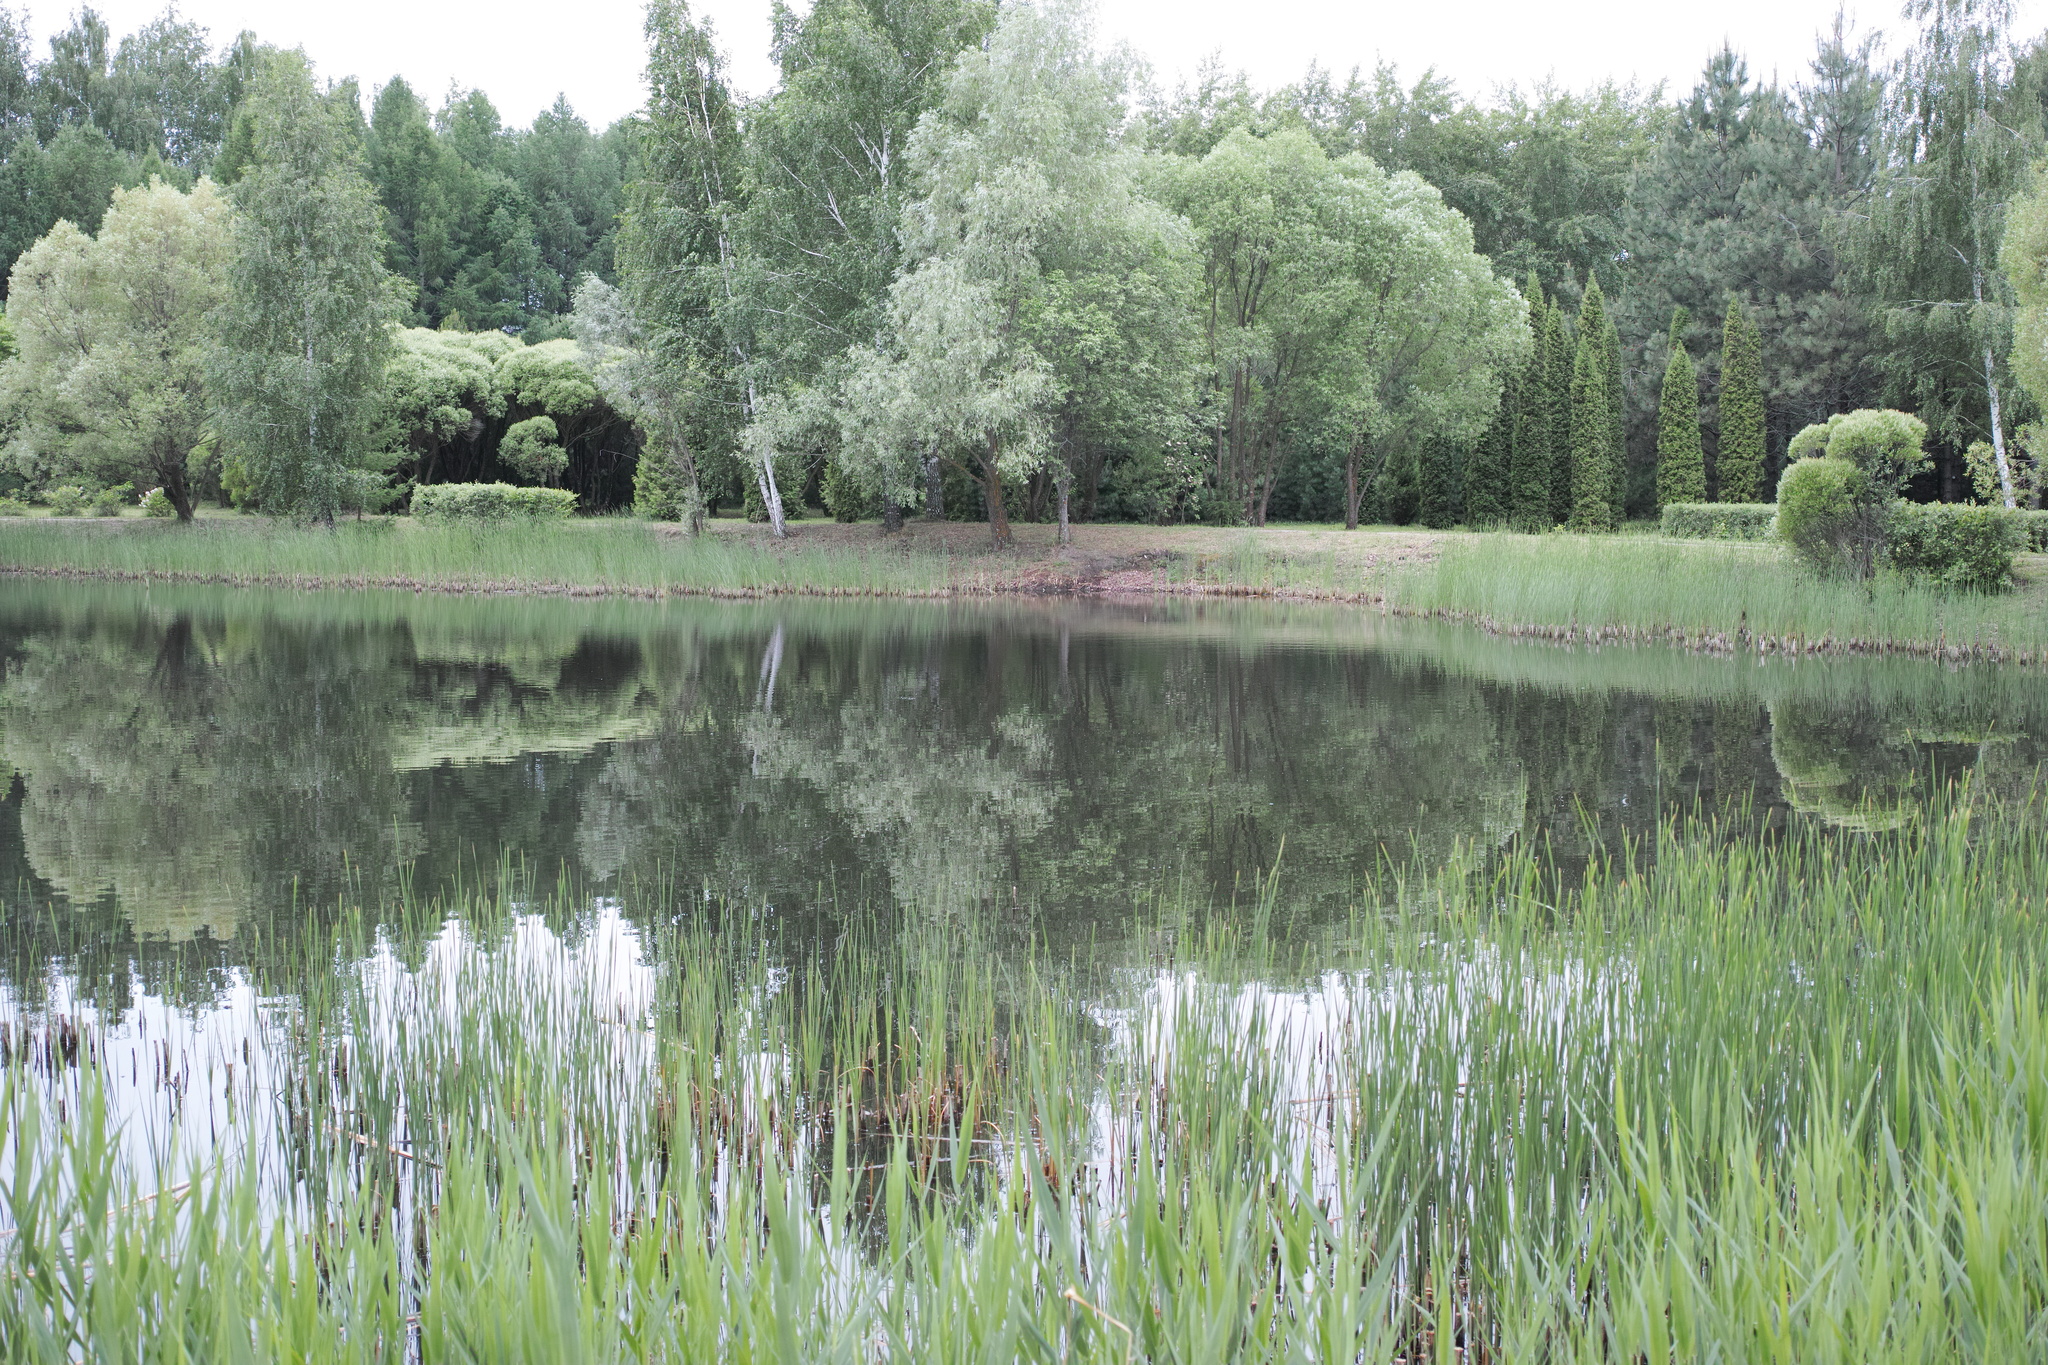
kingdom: Plantae
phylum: Tracheophyta
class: Liliopsida
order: Poales
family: Poaceae
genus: Phragmites
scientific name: Phragmites australis
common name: Common reed
